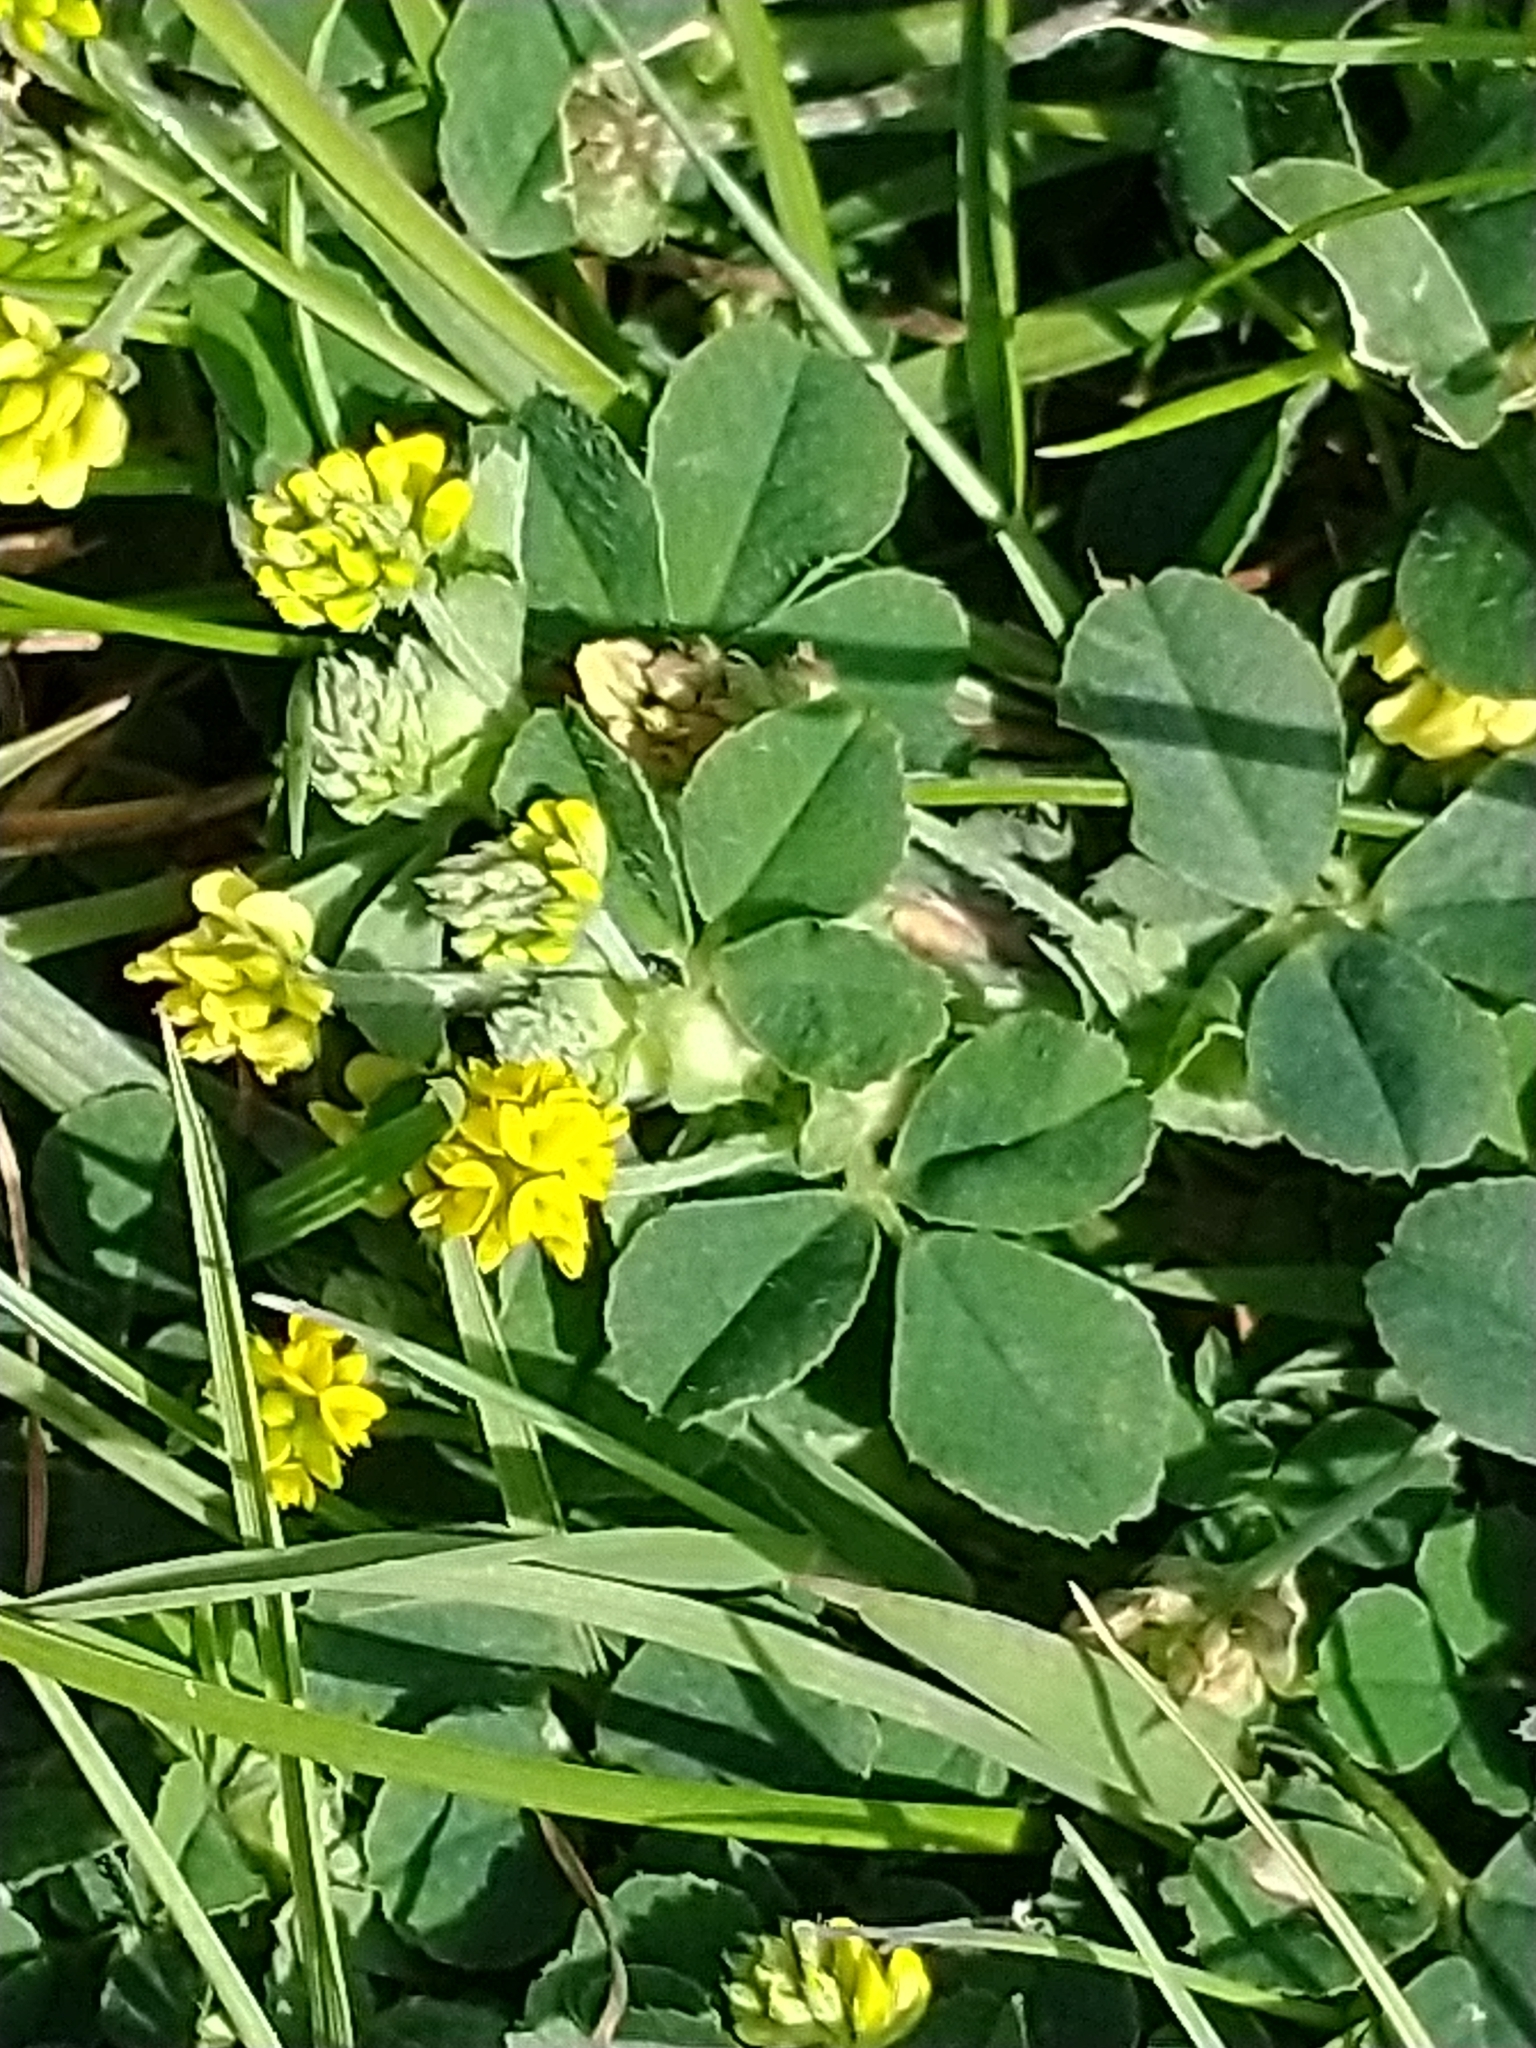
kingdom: Plantae
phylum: Tracheophyta
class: Magnoliopsida
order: Fabales
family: Fabaceae
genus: Medicago
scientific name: Medicago lupulina
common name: Black medick
